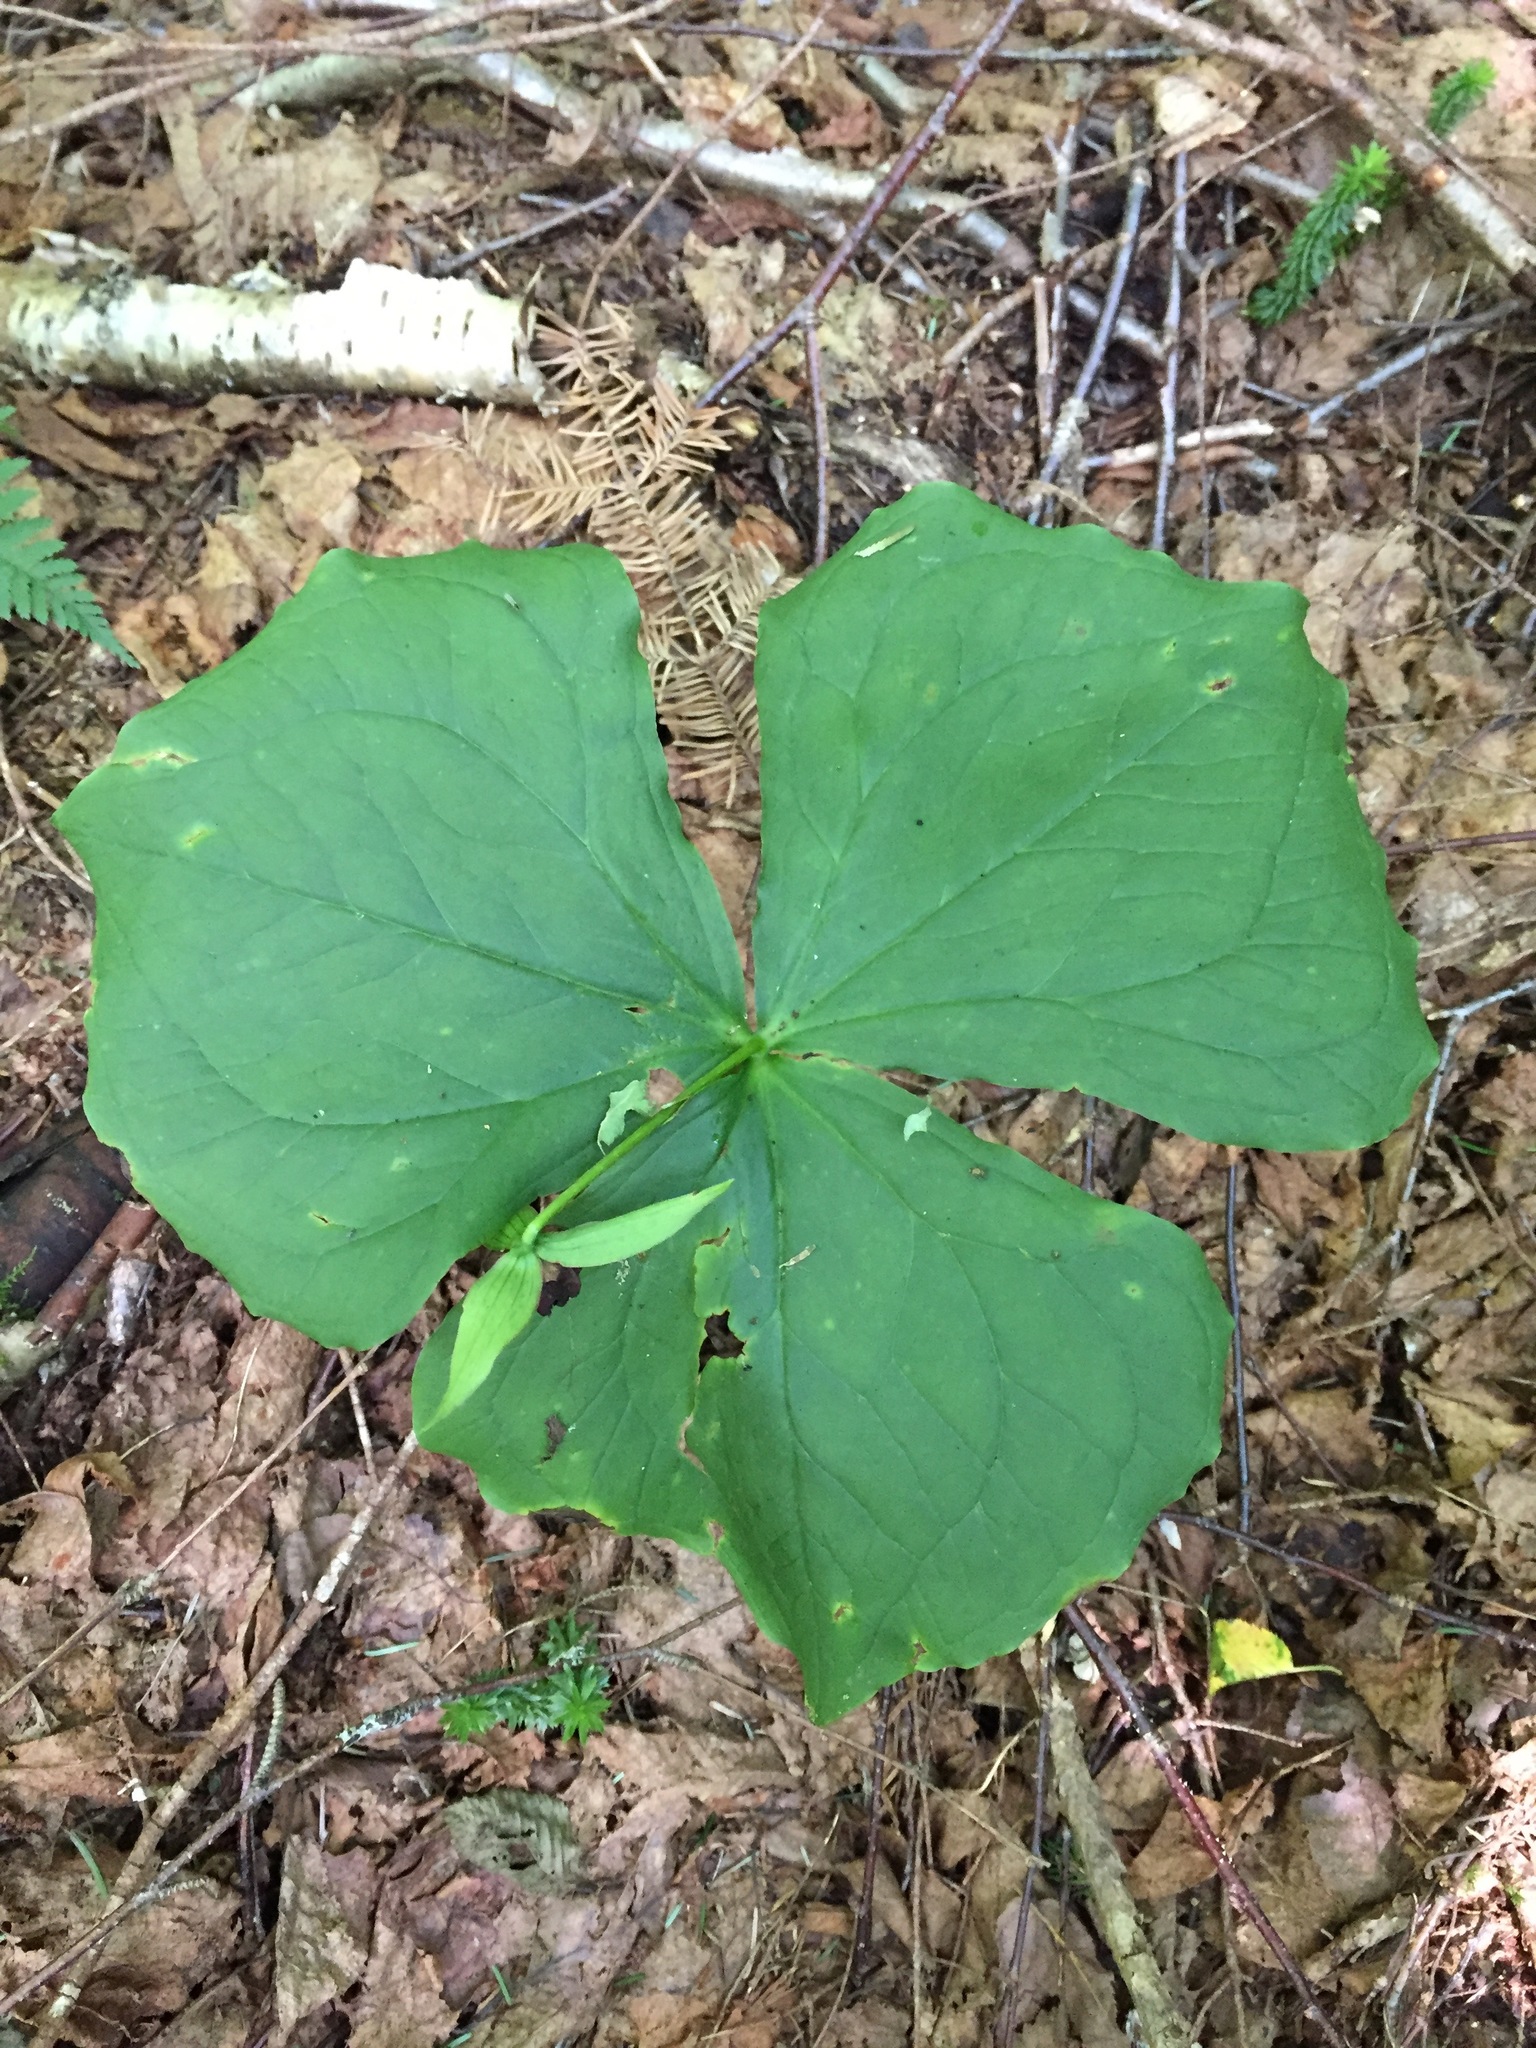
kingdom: Plantae
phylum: Tracheophyta
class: Liliopsida
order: Liliales
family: Melanthiaceae
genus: Trillium
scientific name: Trillium erectum
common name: Purple trillium
